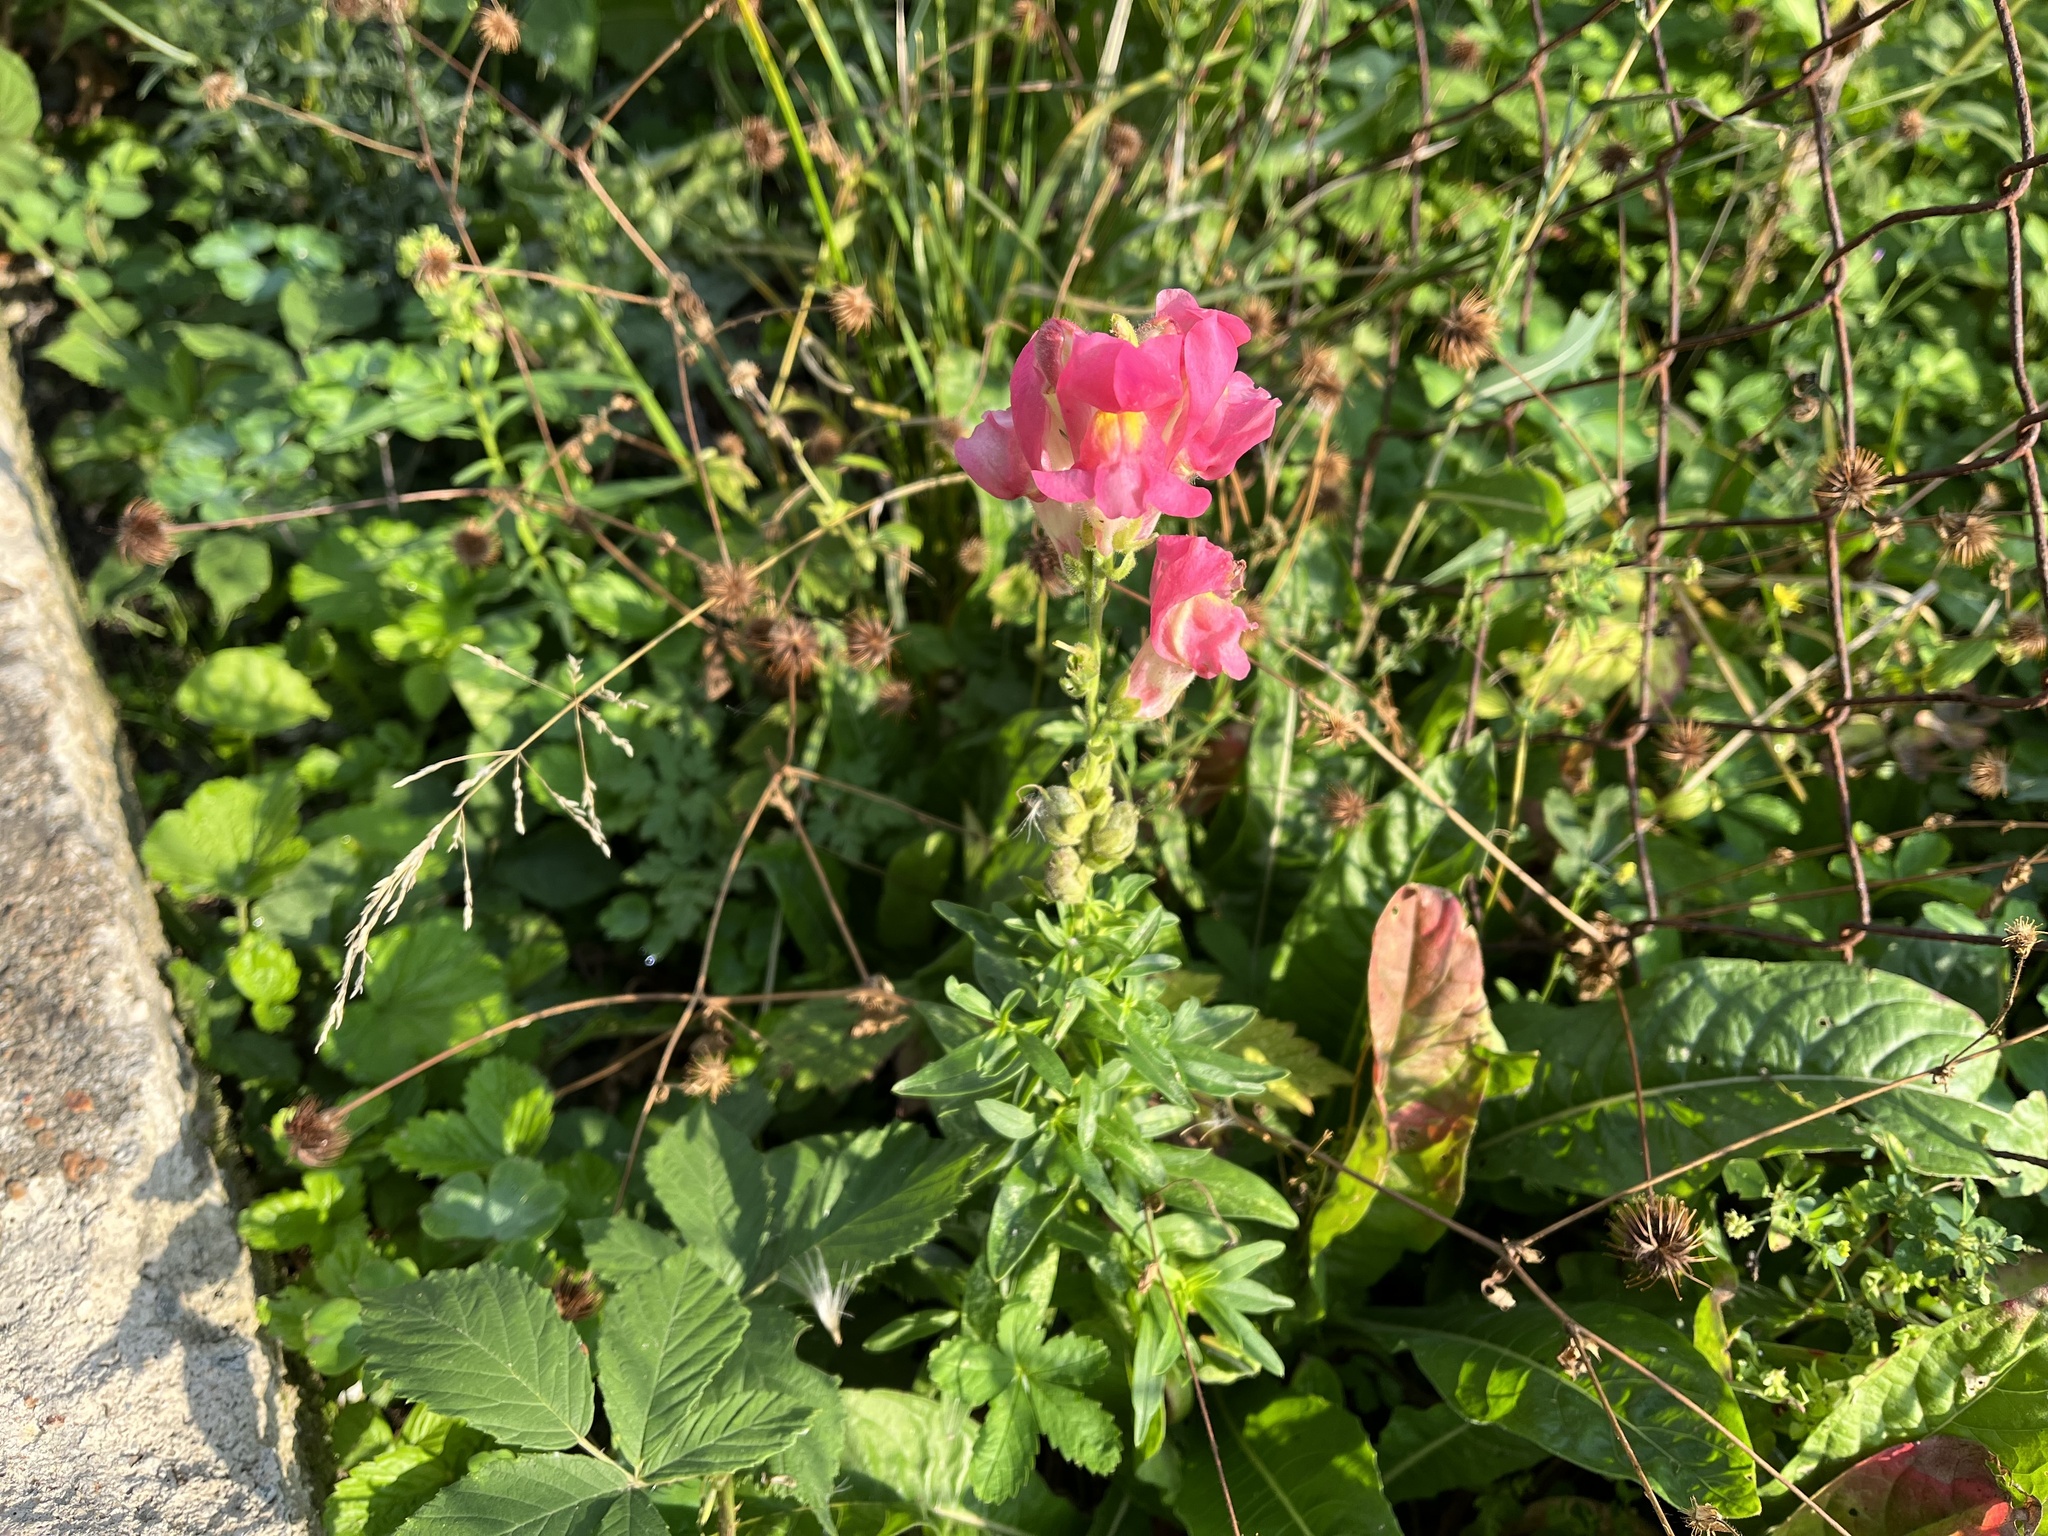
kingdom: Plantae
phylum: Tracheophyta
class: Magnoliopsida
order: Lamiales
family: Plantaginaceae
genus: Antirrhinum
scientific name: Antirrhinum majus
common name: Snapdragon
